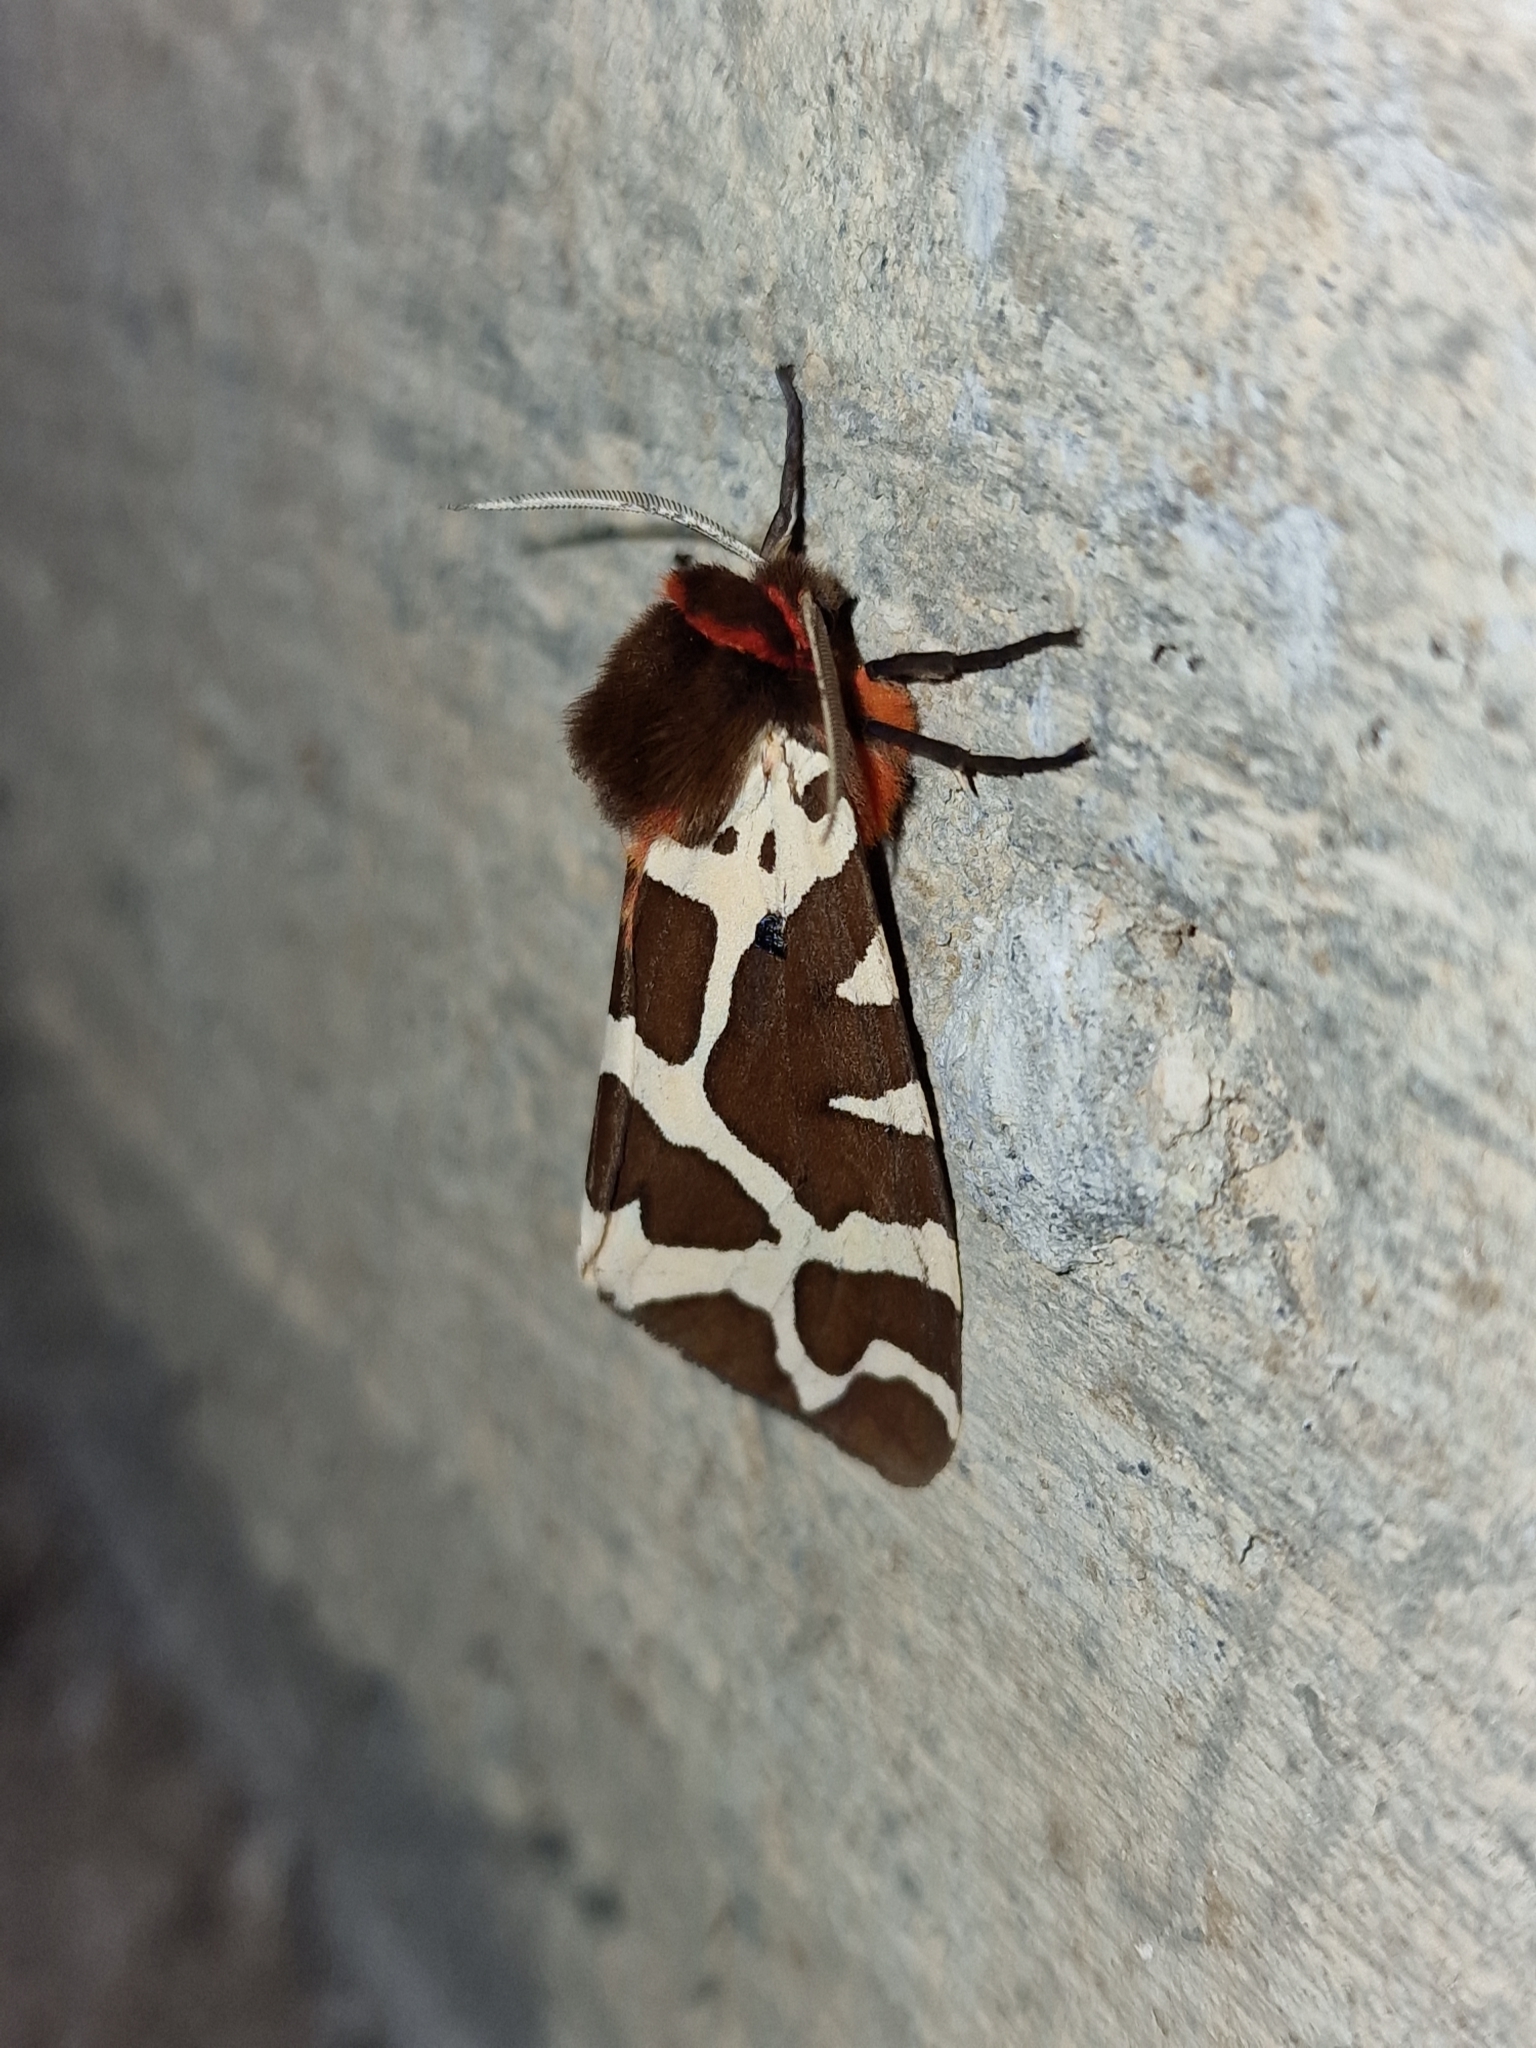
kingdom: Animalia
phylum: Arthropoda
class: Insecta
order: Lepidoptera
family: Erebidae
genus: Arctia
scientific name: Arctia caja
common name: Garden tiger
